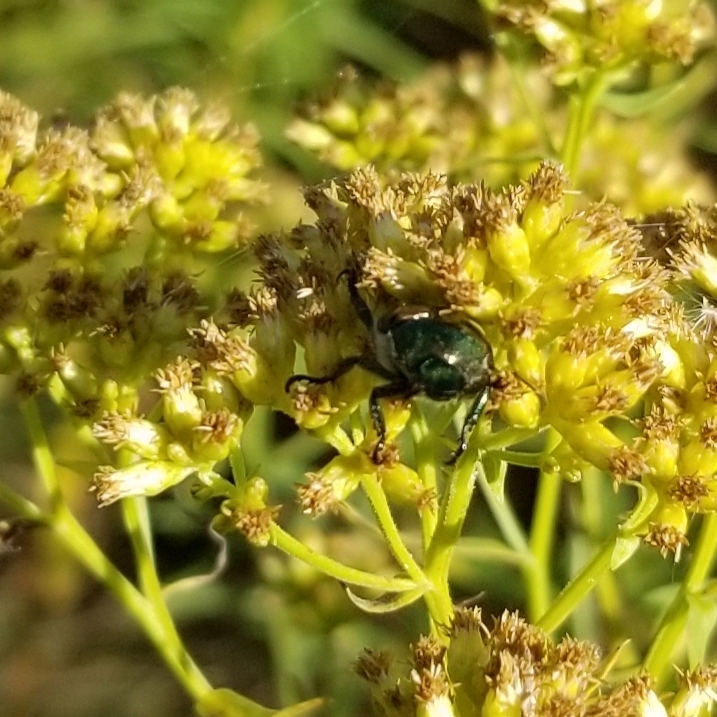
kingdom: Animalia
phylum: Arthropoda
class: Insecta
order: Coleoptera
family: Scarabaeidae
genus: Popillia
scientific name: Popillia japonica
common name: Japanese beetle
